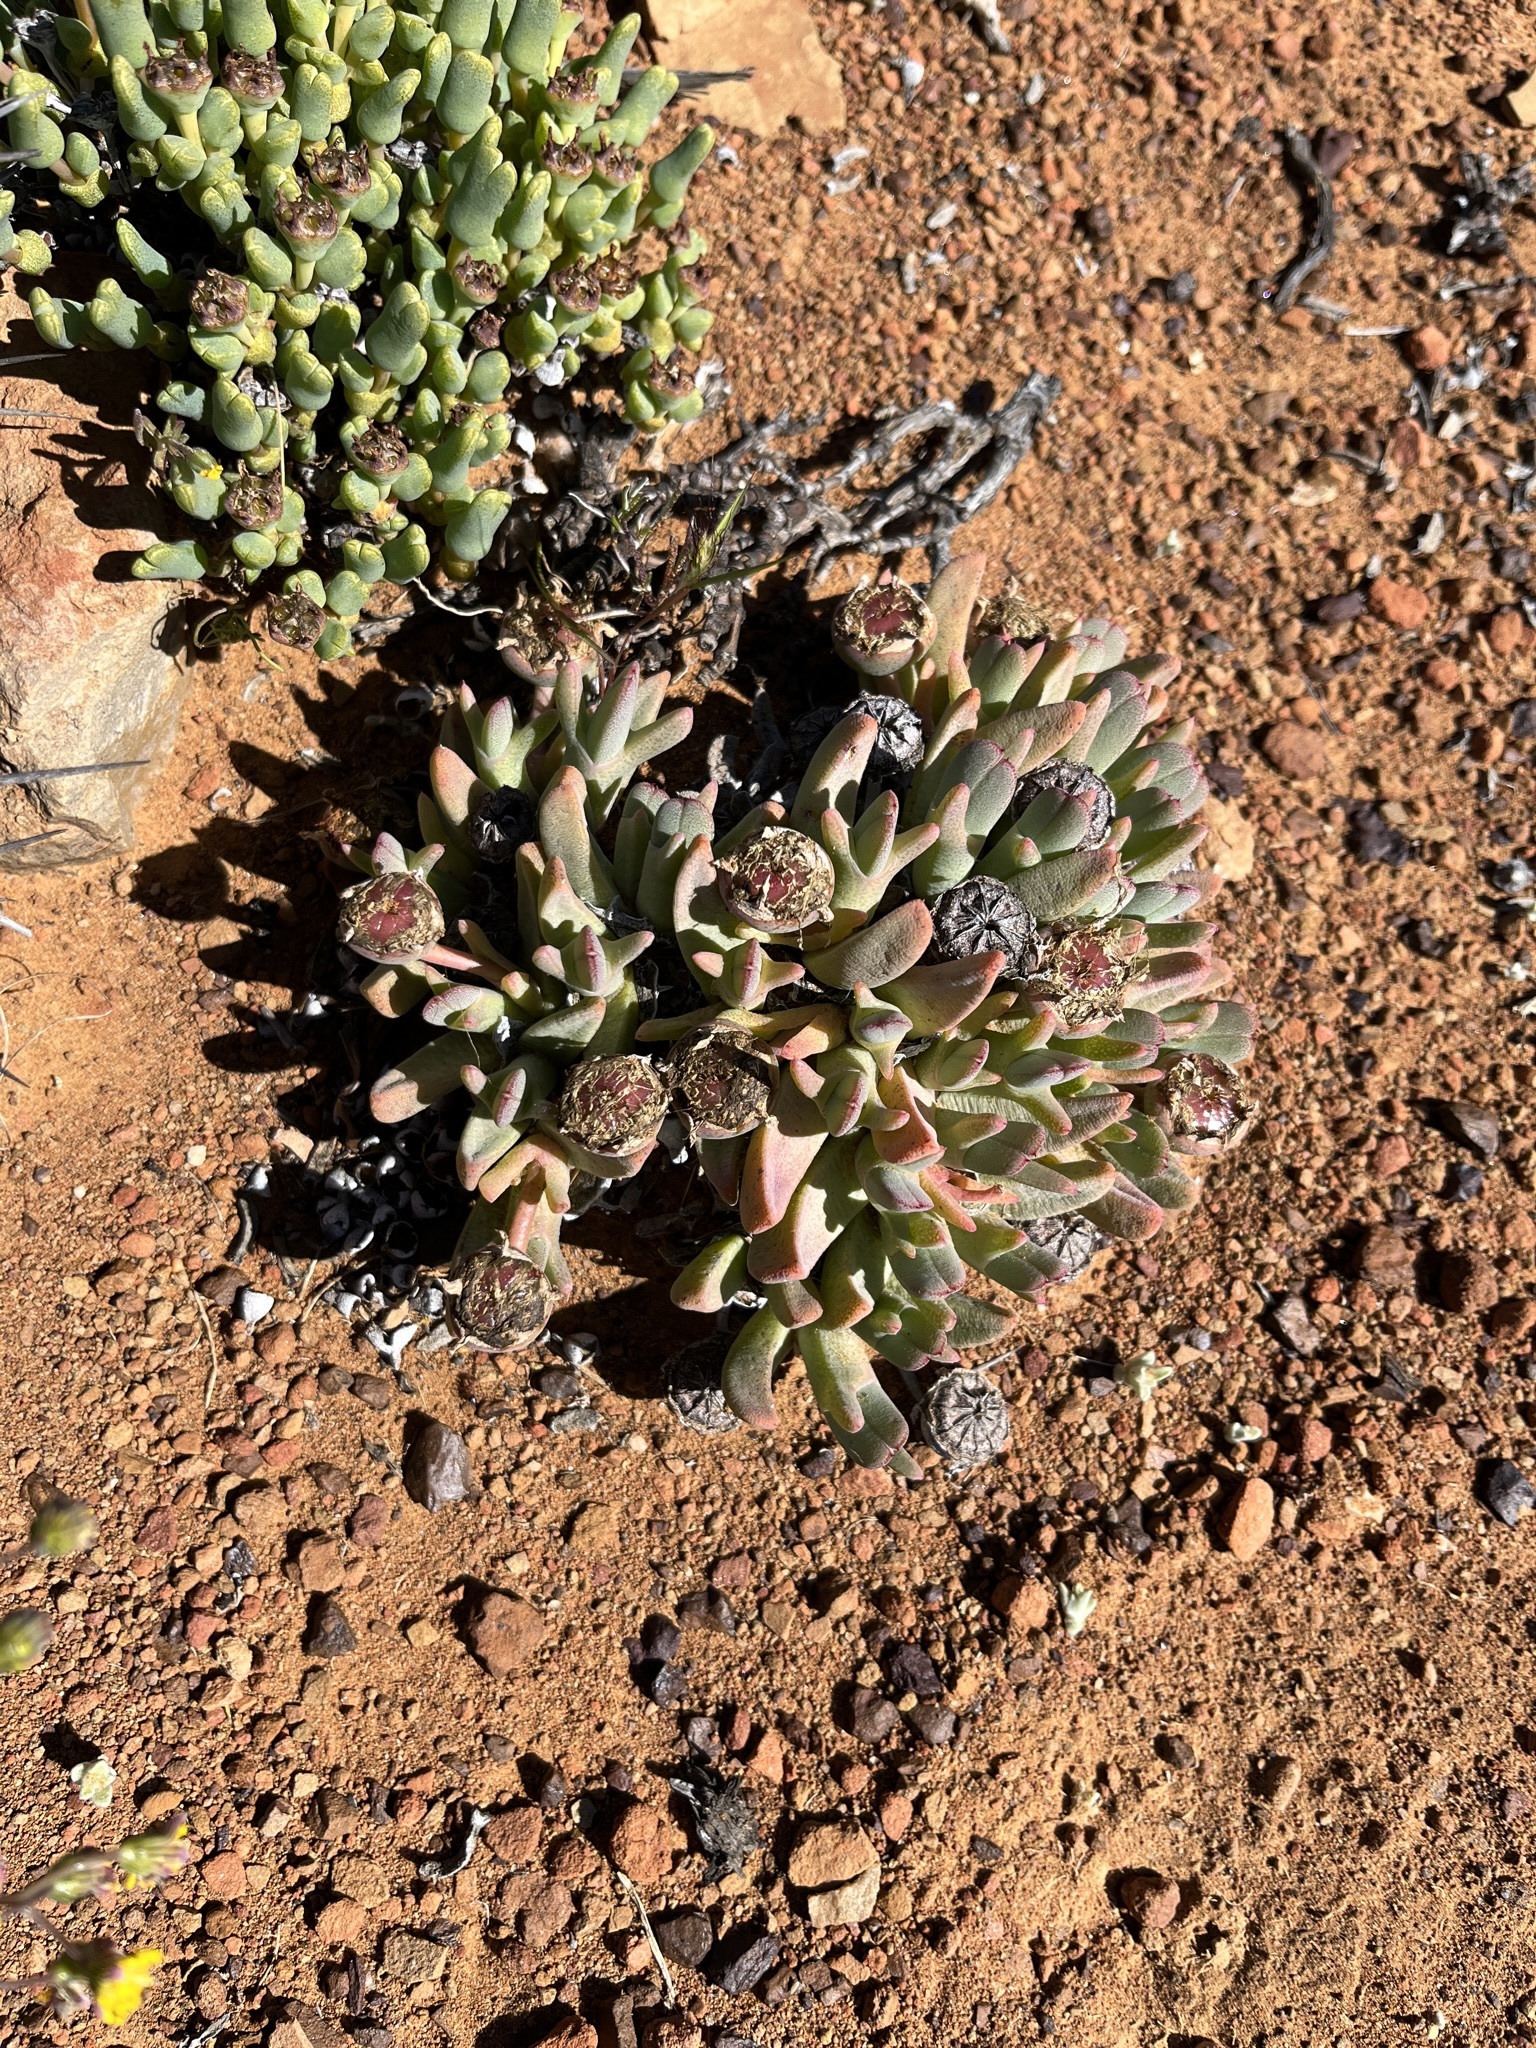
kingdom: Plantae
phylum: Tracheophyta
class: Magnoliopsida
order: Caryophyllales
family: Aizoaceae
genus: Cheiridopsis
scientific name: Cheiridopsis namaquensis
